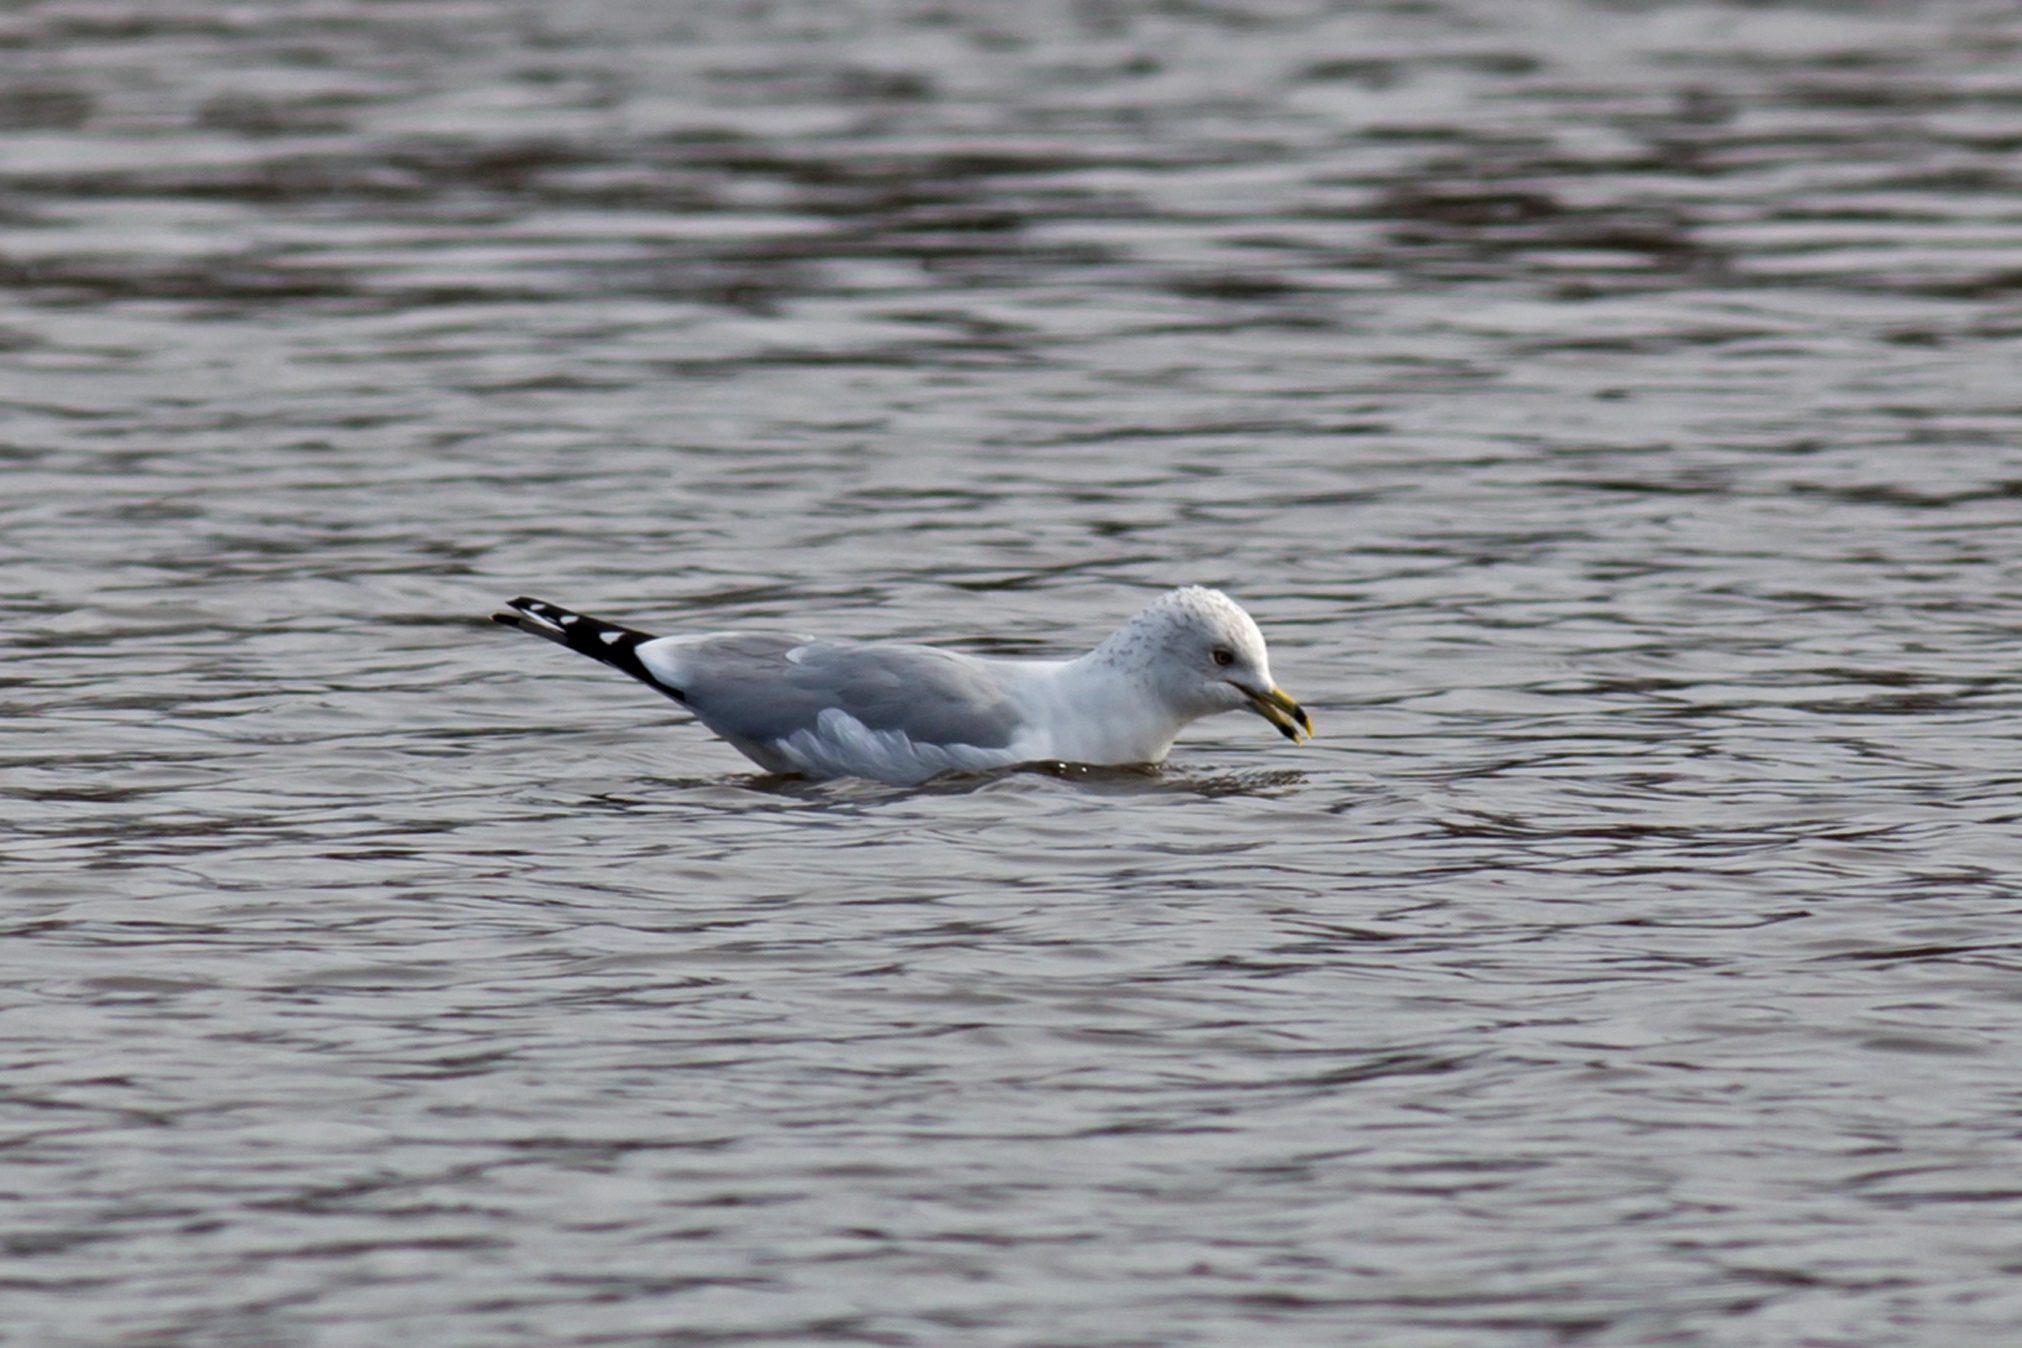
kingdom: Animalia
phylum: Chordata
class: Aves
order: Charadriiformes
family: Laridae
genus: Larus
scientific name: Larus delawarensis
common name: Ring-billed gull
